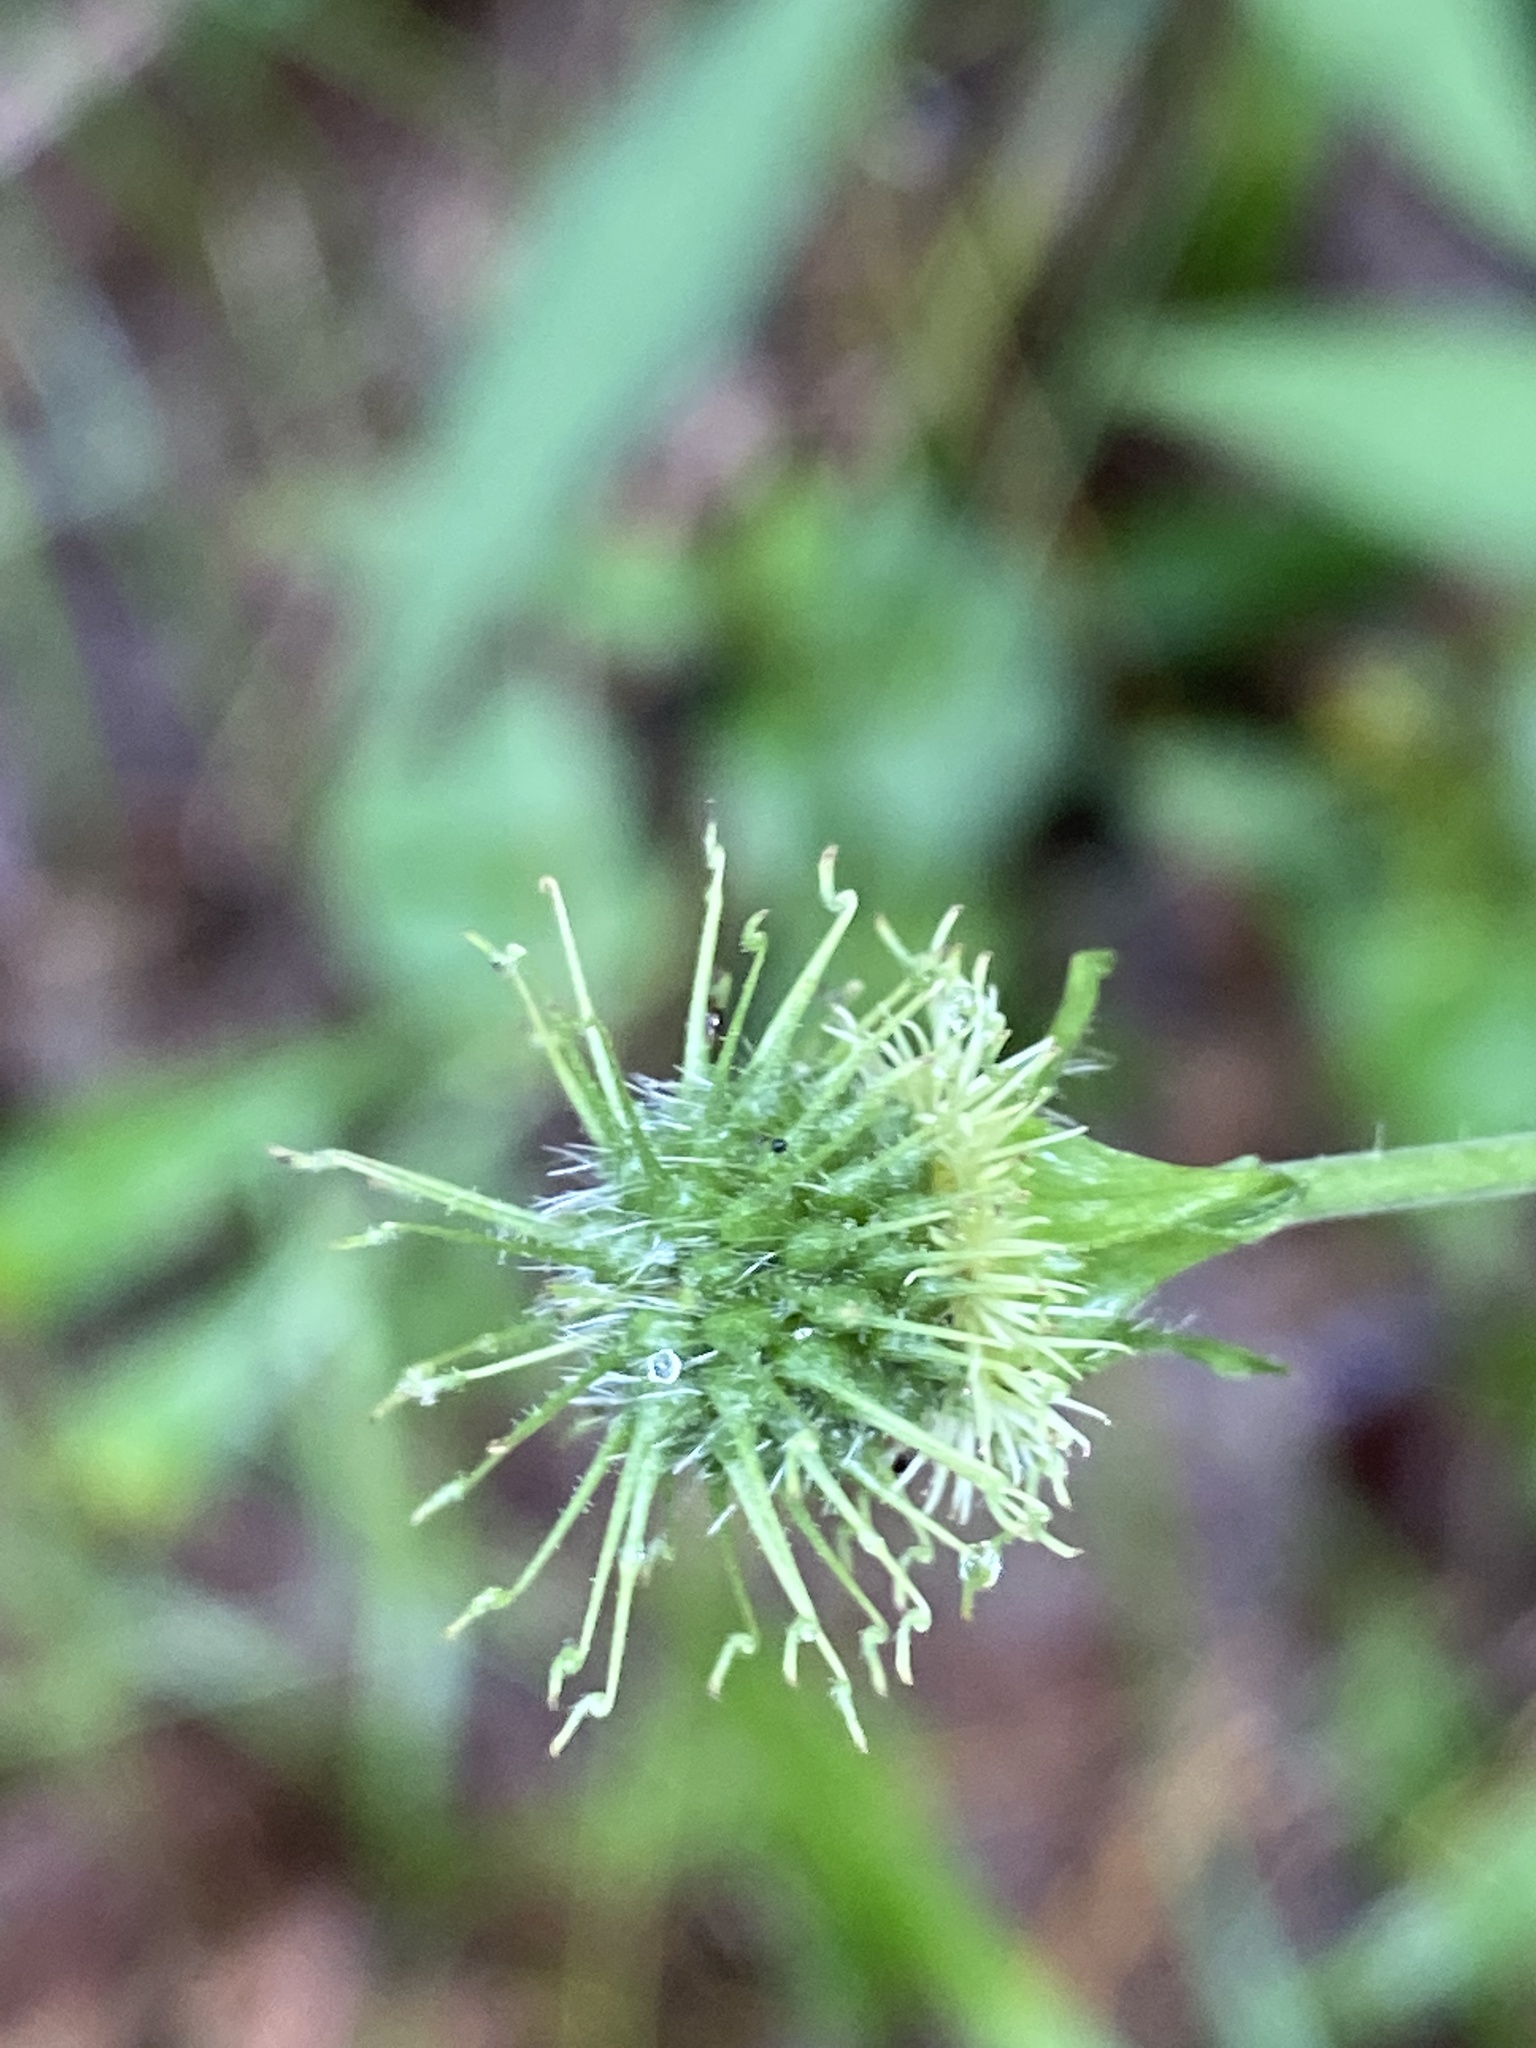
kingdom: Plantae
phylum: Tracheophyta
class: Magnoliopsida
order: Rosales
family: Rosaceae
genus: Geum
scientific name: Geum canadense
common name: White avens
